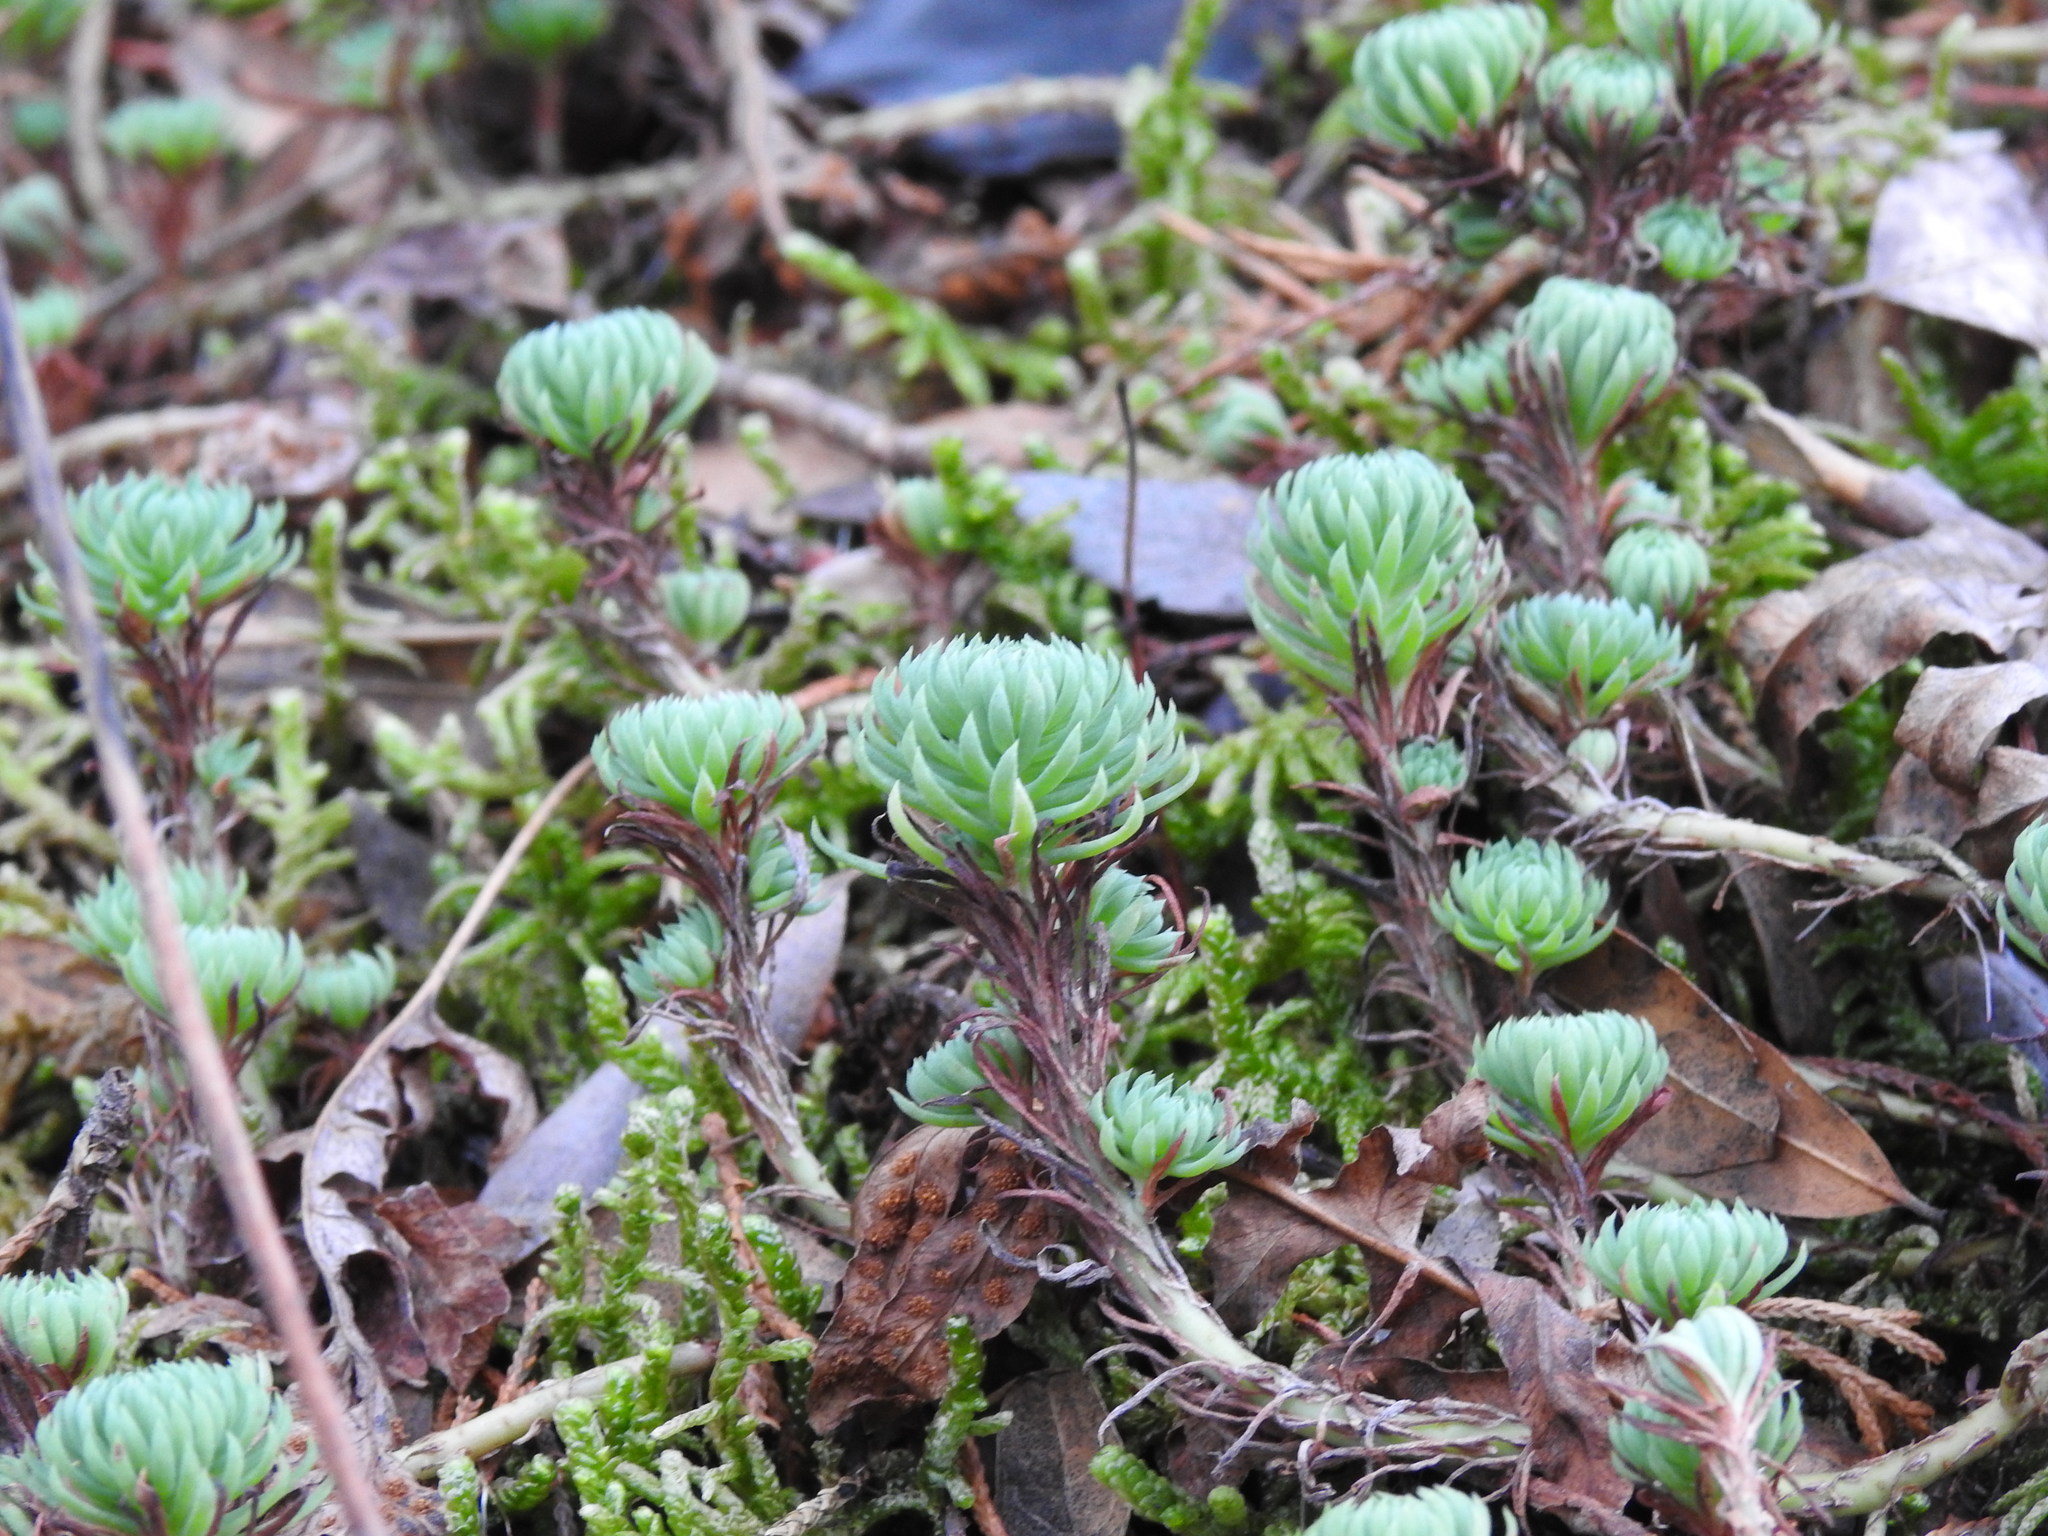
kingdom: Plantae
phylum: Tracheophyta
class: Magnoliopsida
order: Saxifragales
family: Crassulaceae
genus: Petrosedum
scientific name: Petrosedum forsterianum
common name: Forster's stonecrop
